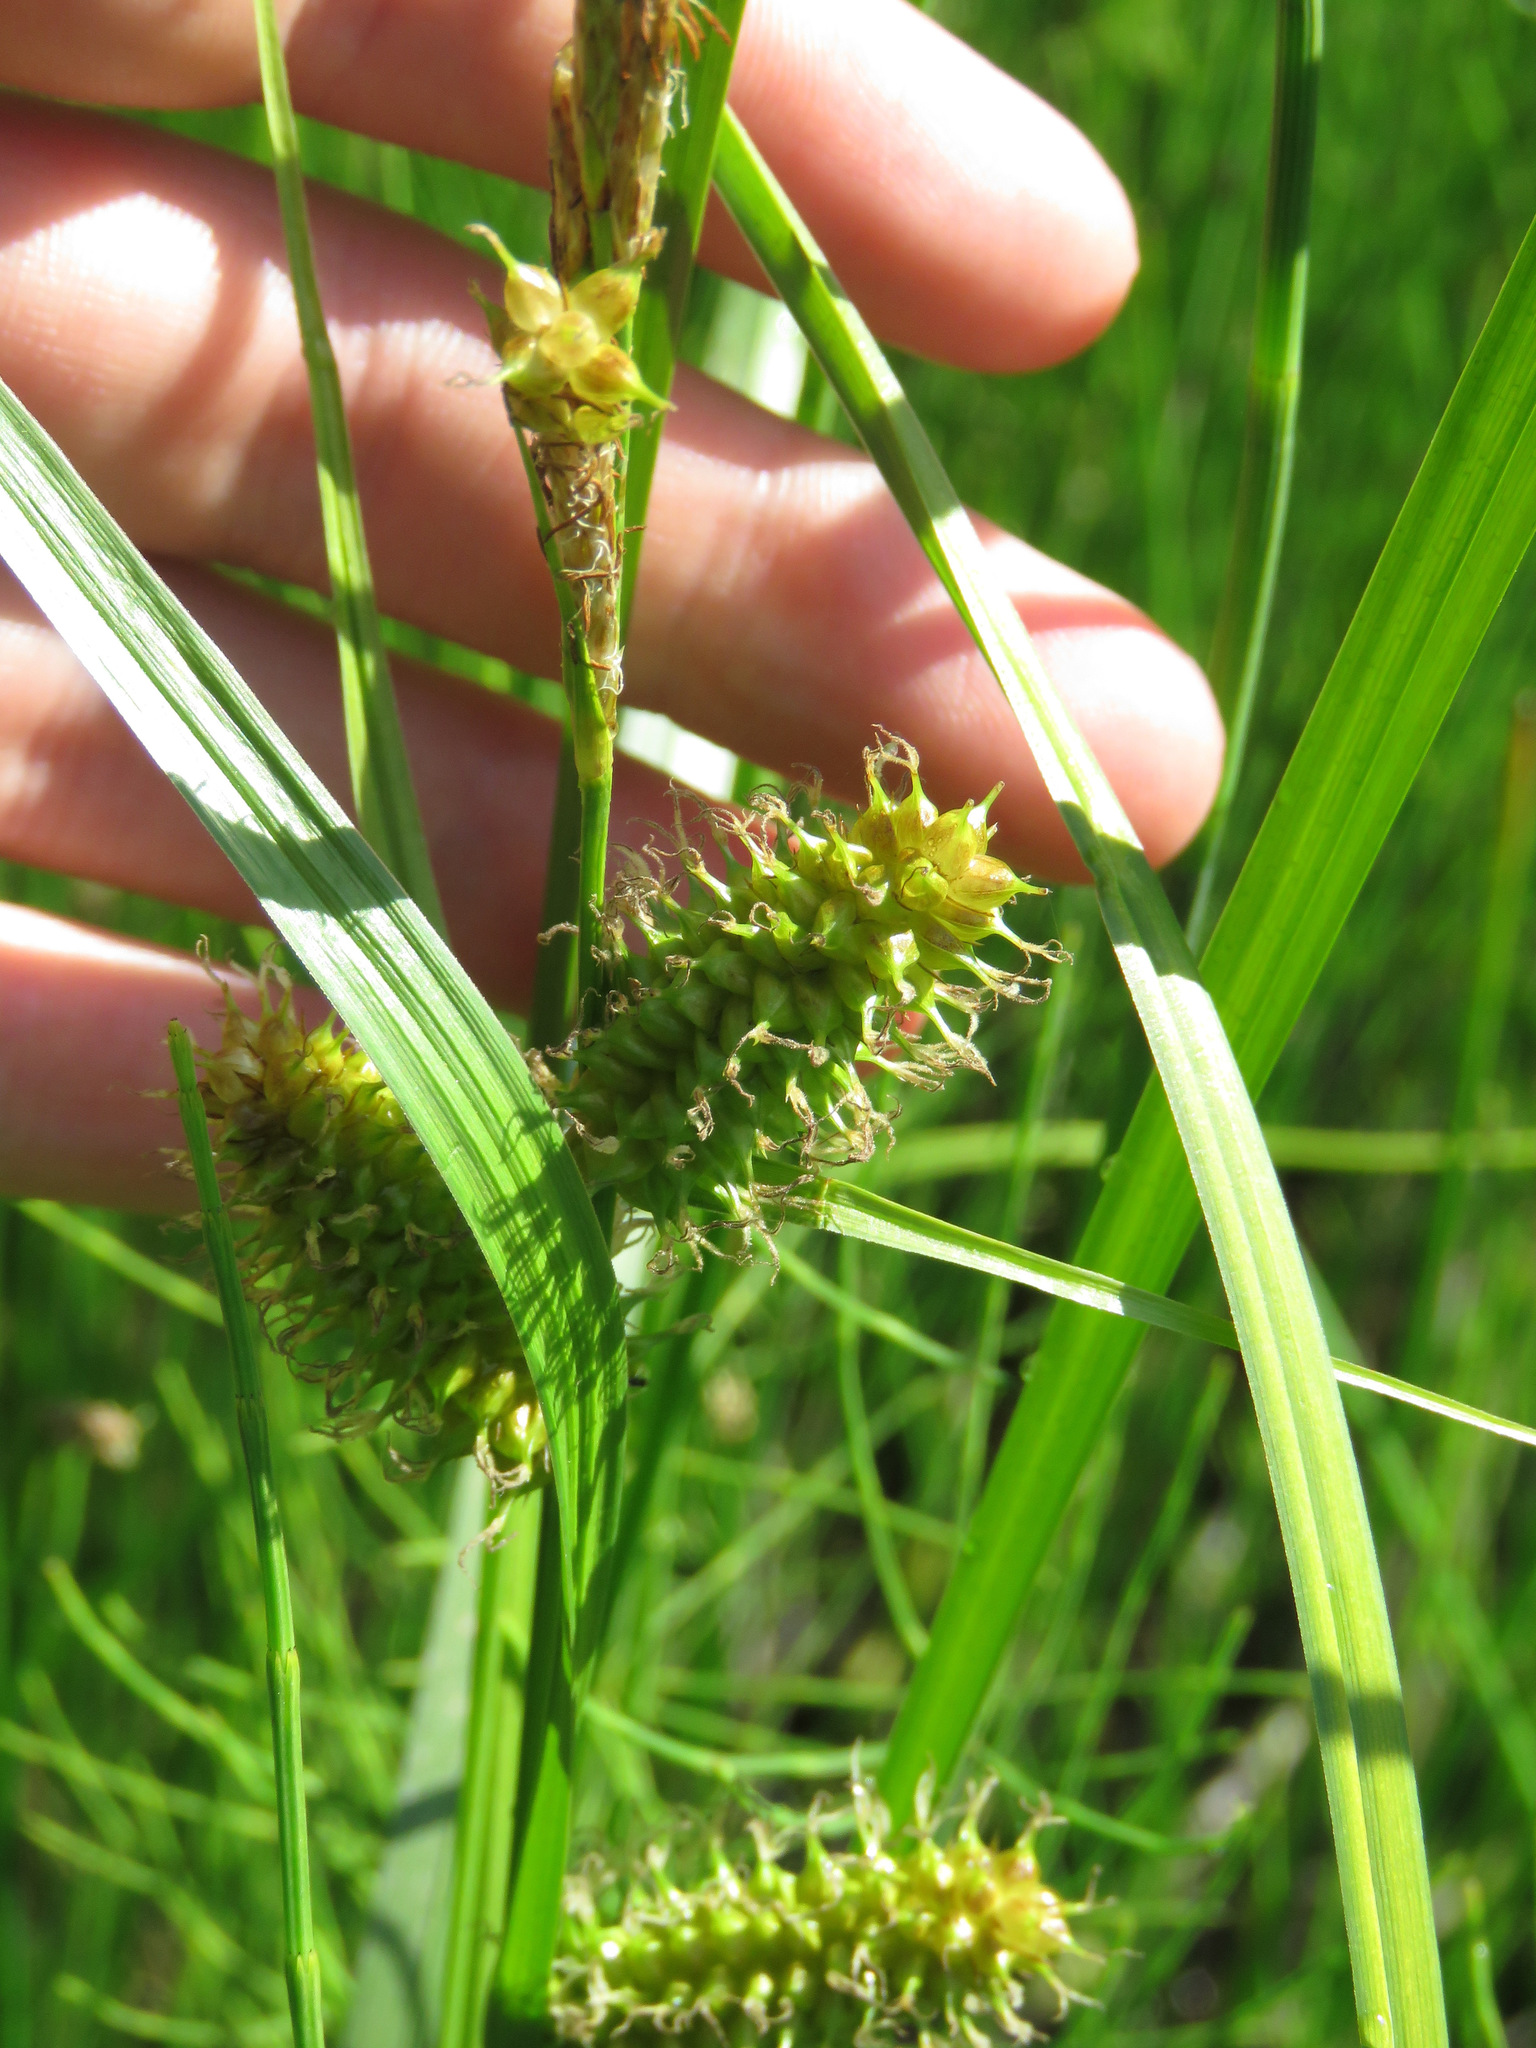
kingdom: Plantae
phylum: Tracheophyta
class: Liliopsida
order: Poales
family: Cyperaceae
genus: Carex
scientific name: Carex utriculata
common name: Beaked sedge
